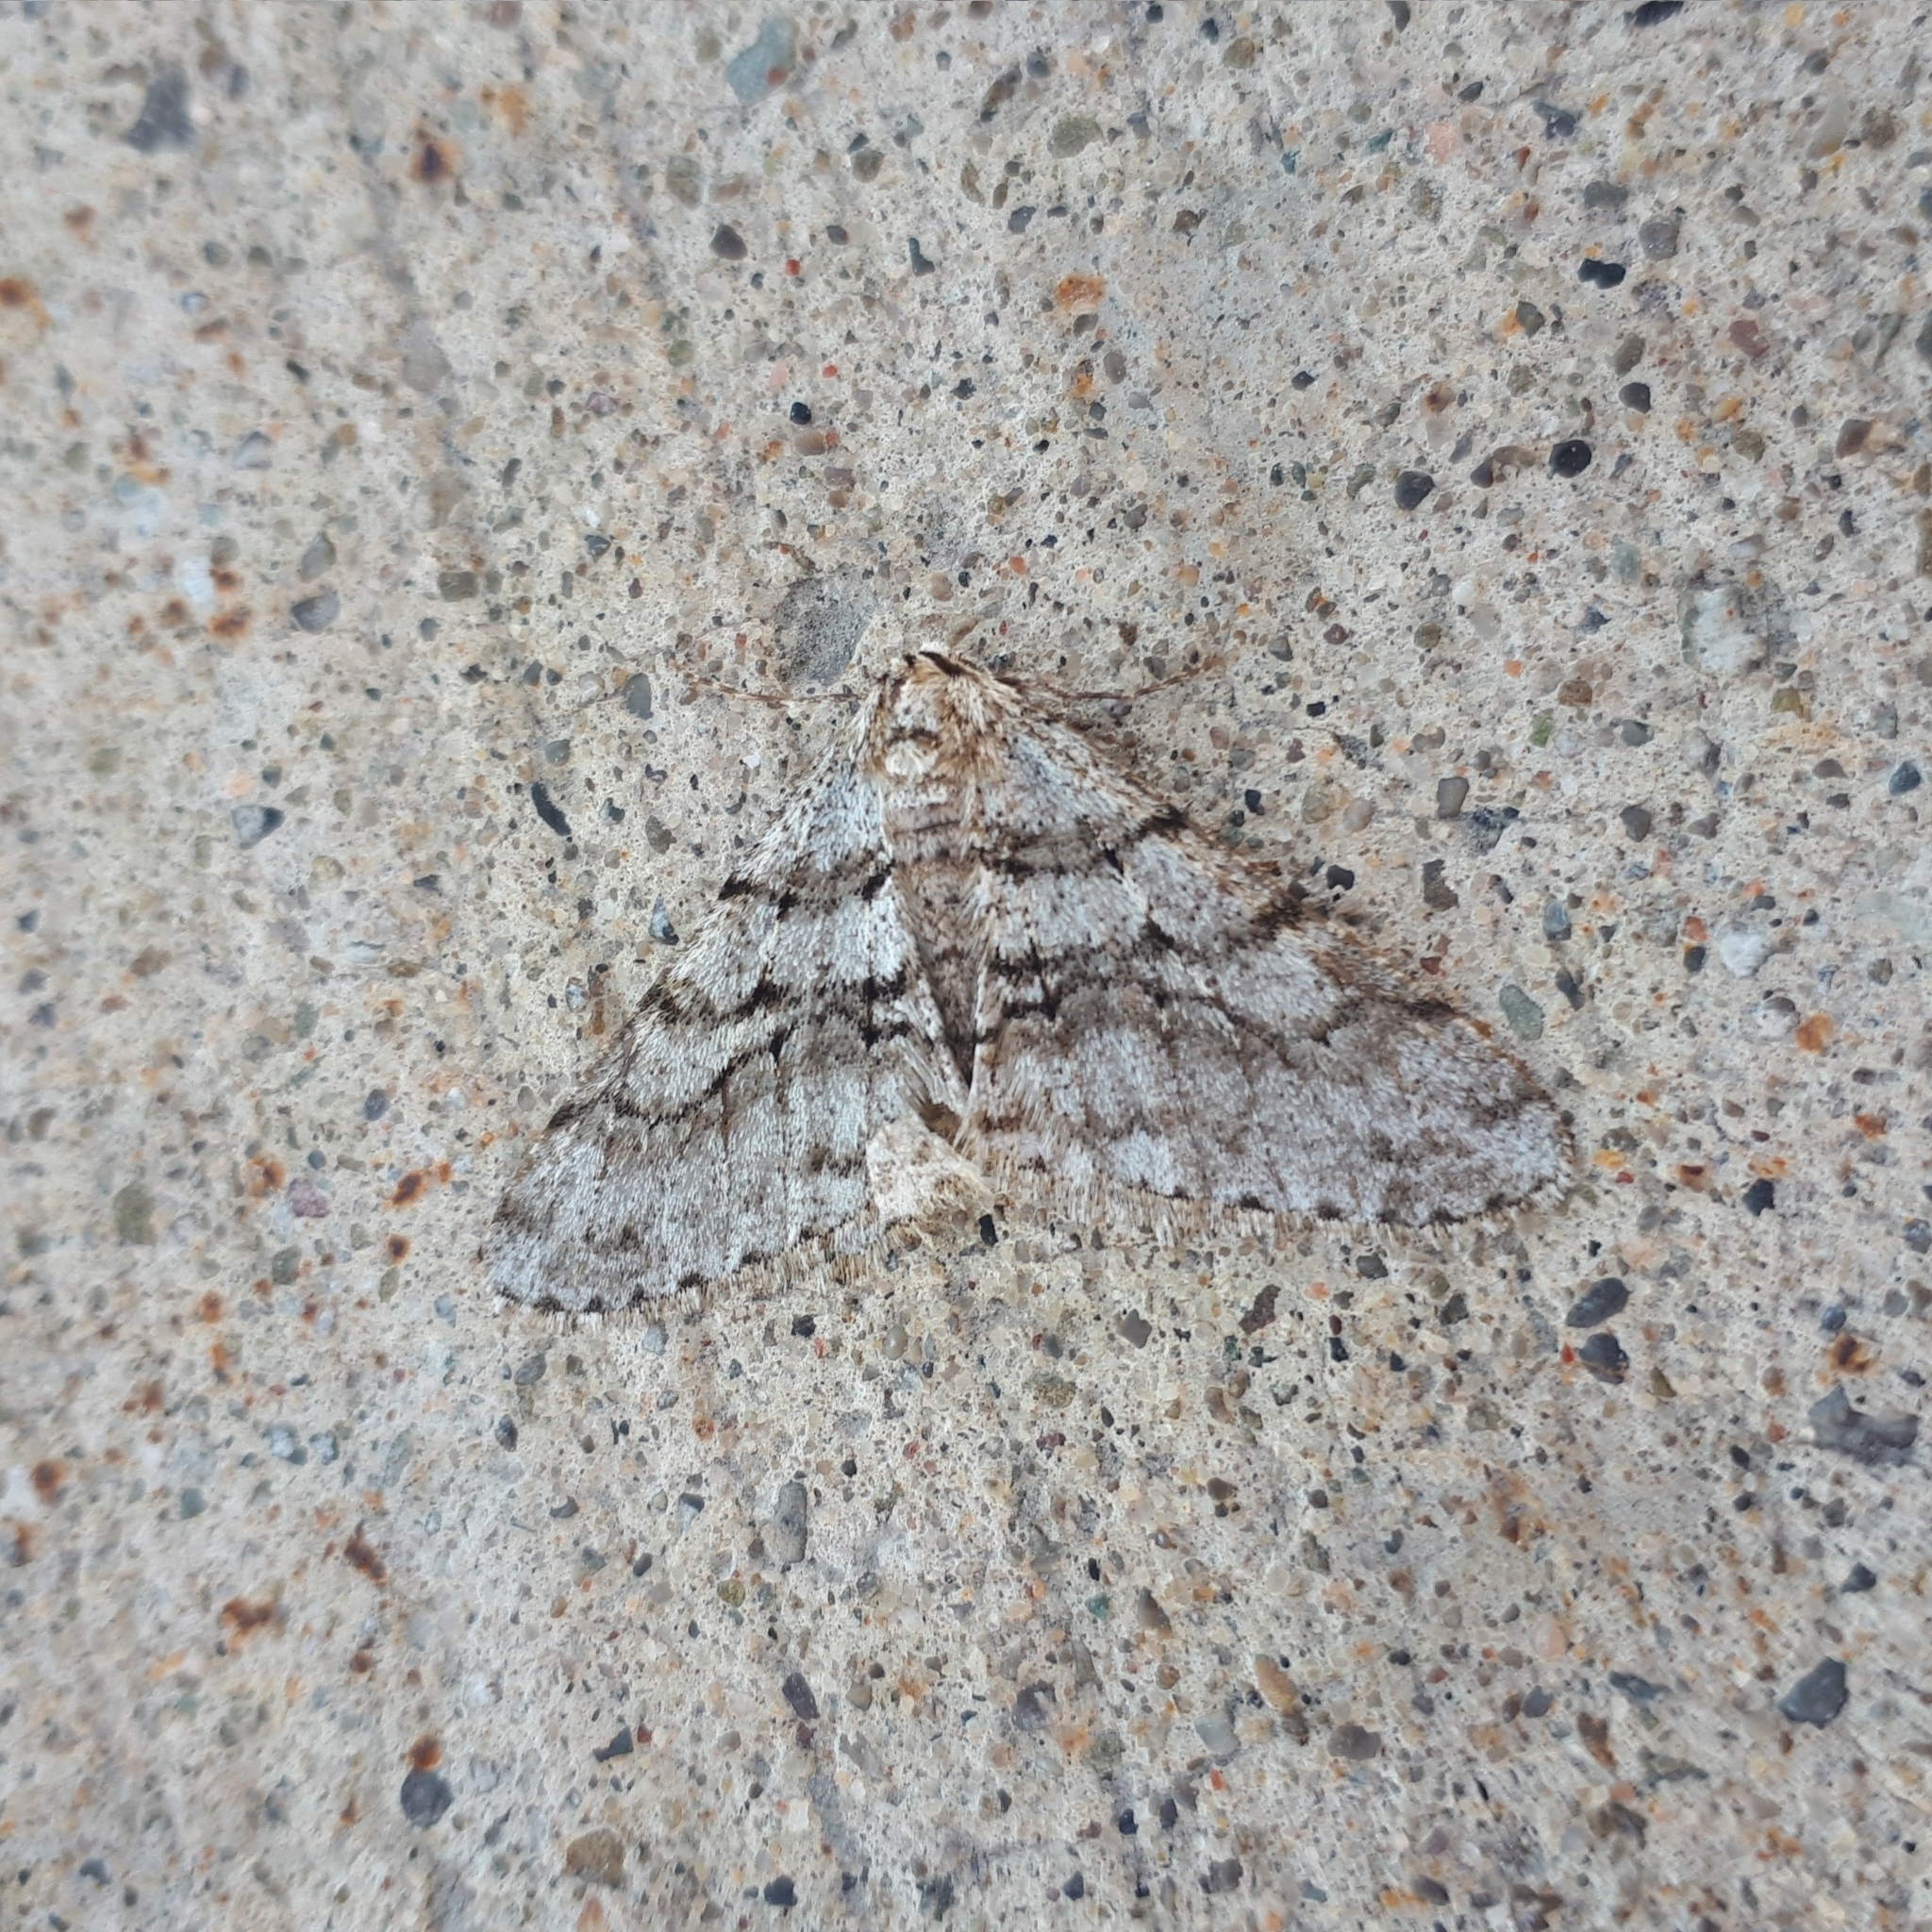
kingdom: Animalia
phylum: Arthropoda
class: Insecta
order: Lepidoptera
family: Geometridae
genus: Phigalia
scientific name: Phigalia titea
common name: Spiny looper
